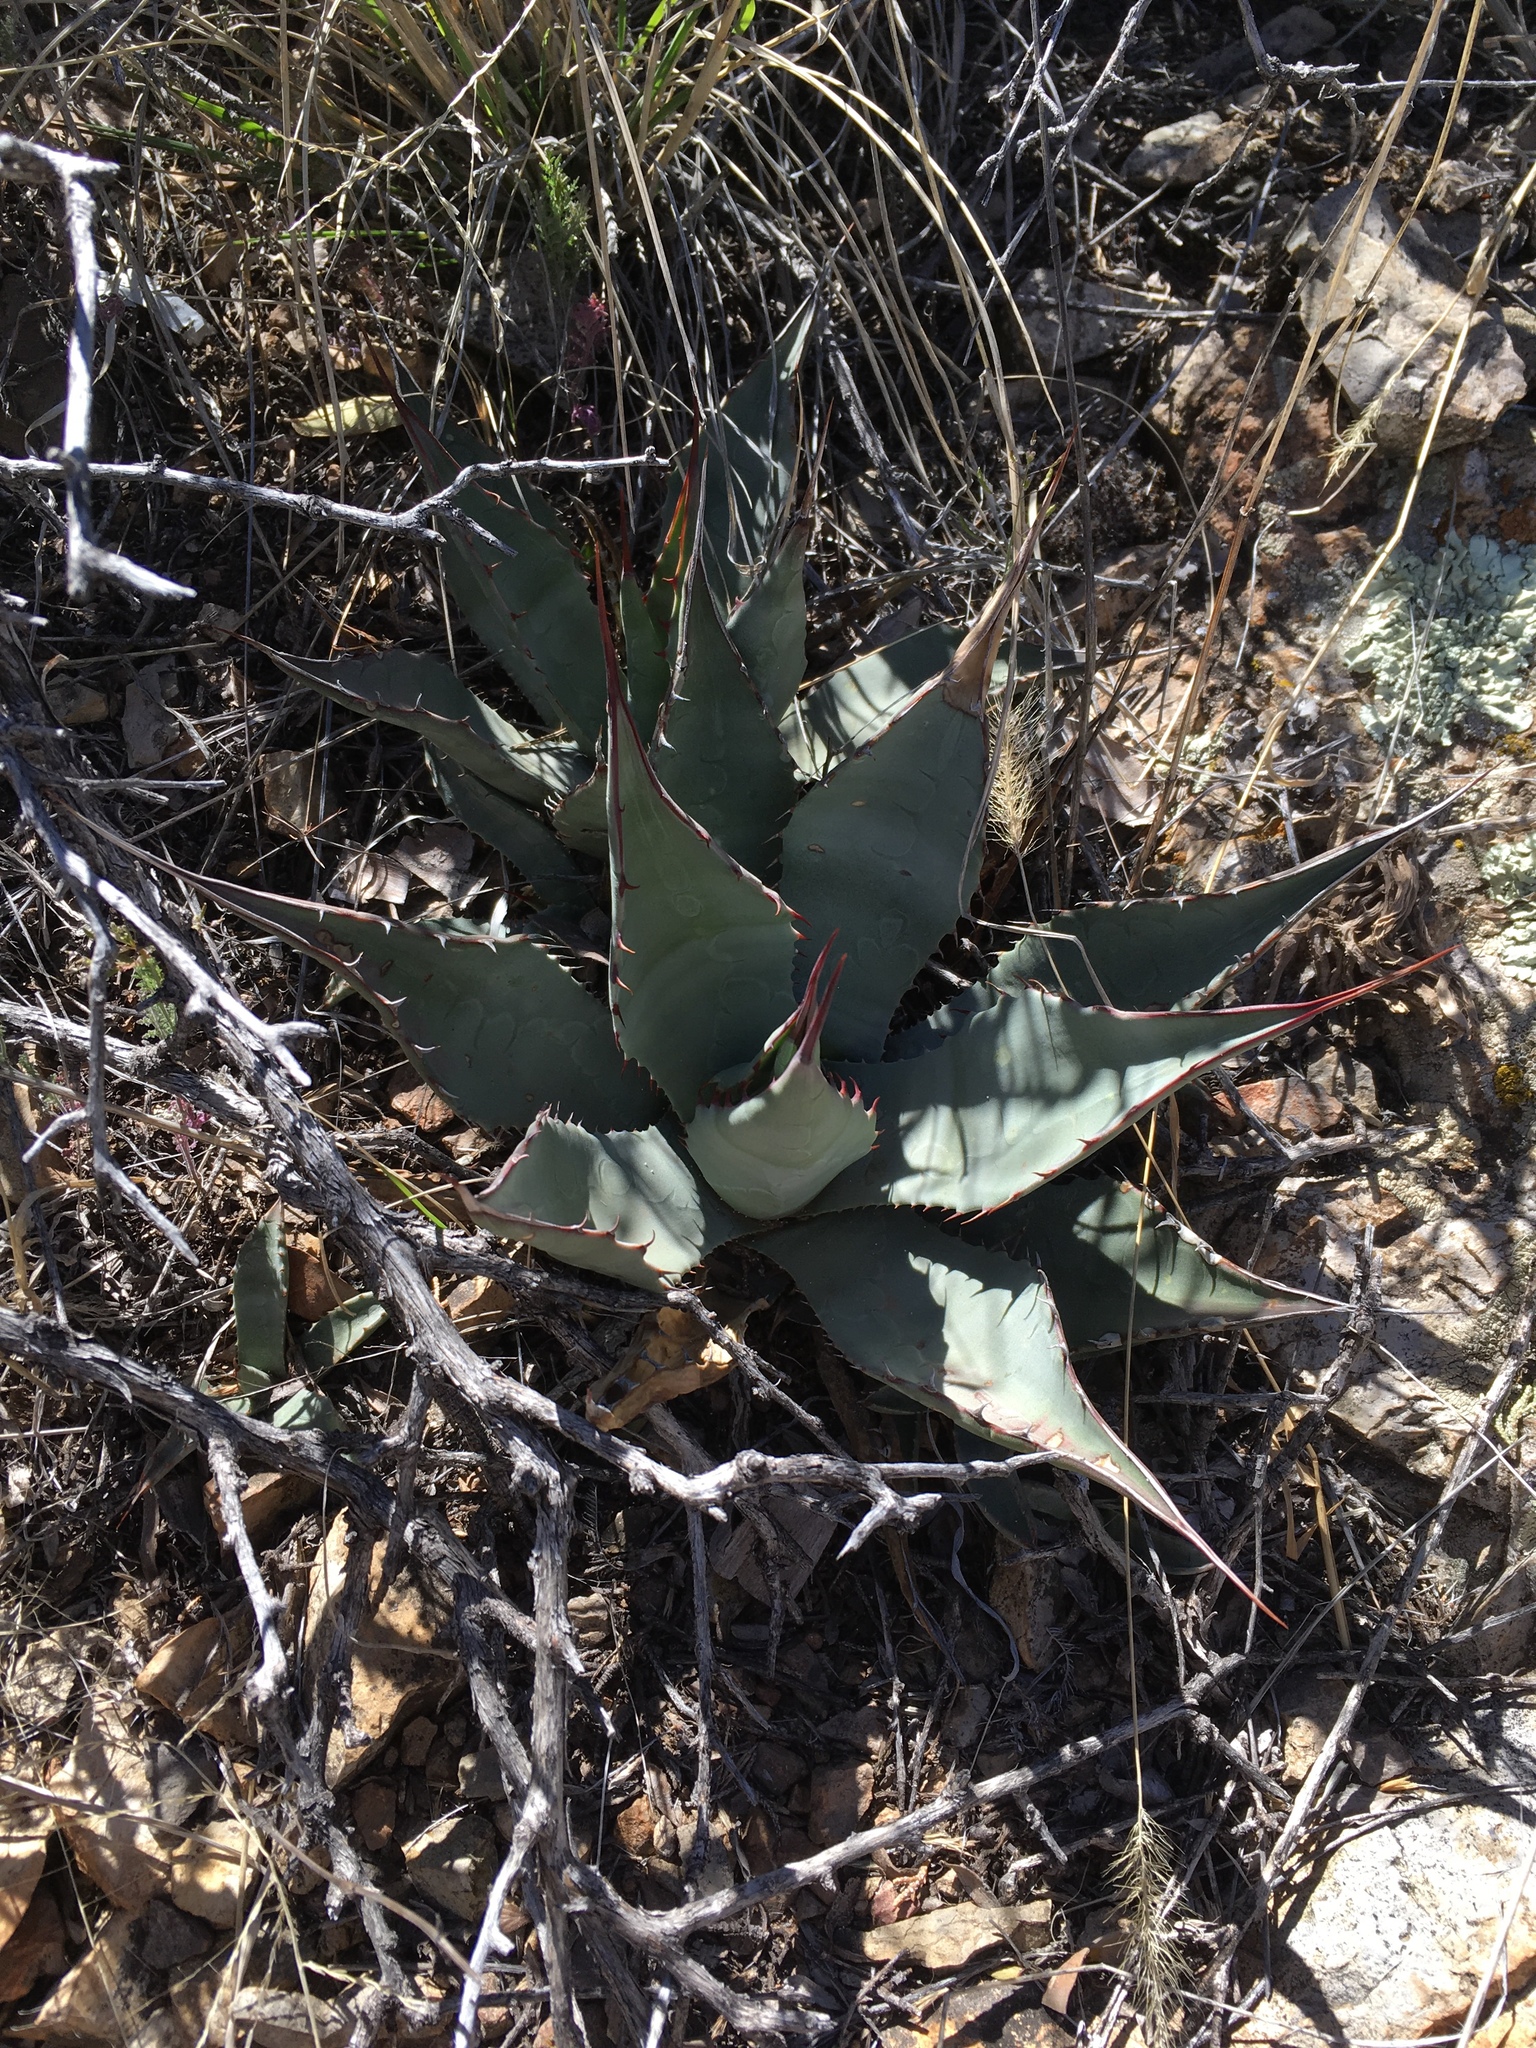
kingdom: Plantae
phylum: Tracheophyta
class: Liliopsida
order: Asparagales
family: Asparagaceae
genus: Agave
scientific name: Agave parryi
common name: Parry's agave
